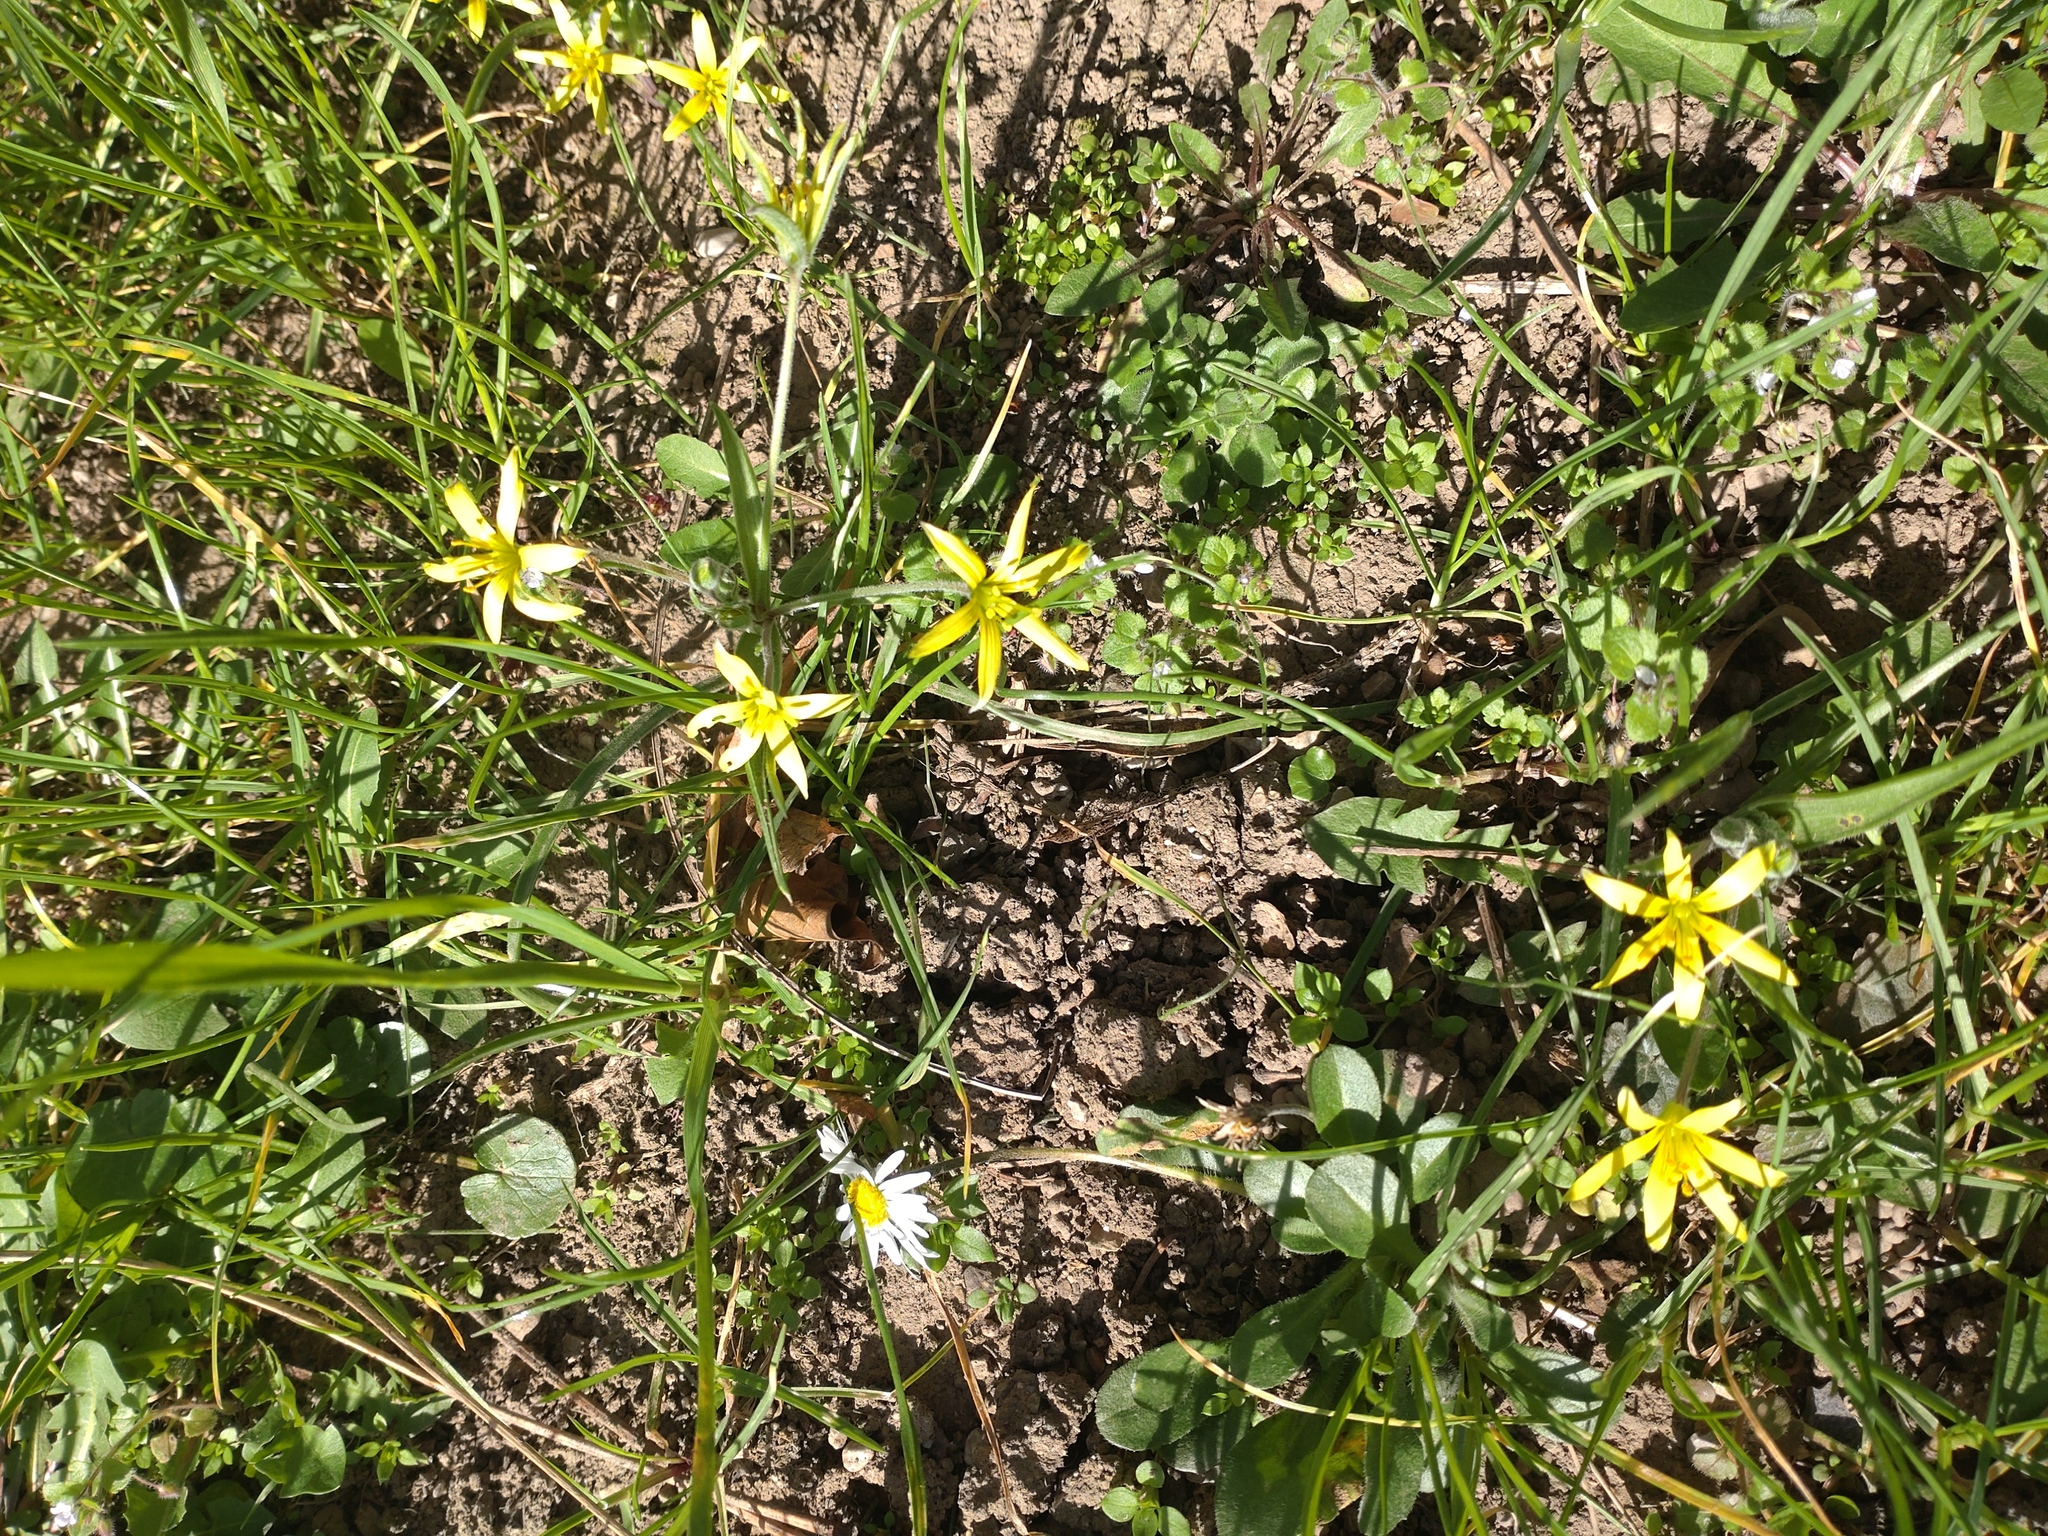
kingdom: Plantae
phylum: Tracheophyta
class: Liliopsida
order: Liliales
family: Liliaceae
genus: Gagea
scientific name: Gagea villosa
